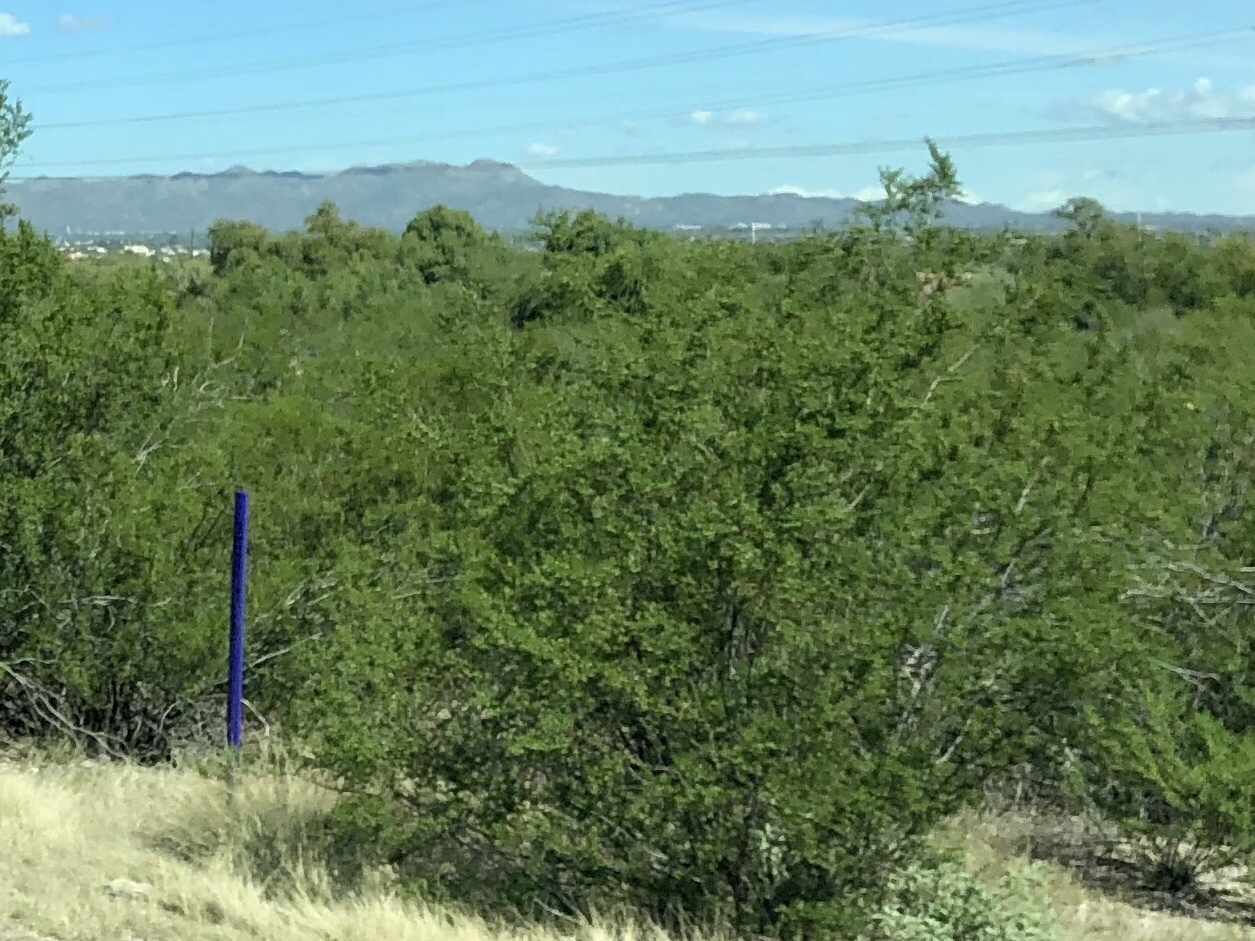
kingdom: Plantae
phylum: Tracheophyta
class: Magnoliopsida
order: Zygophyllales
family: Zygophyllaceae
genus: Larrea
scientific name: Larrea tridentata
